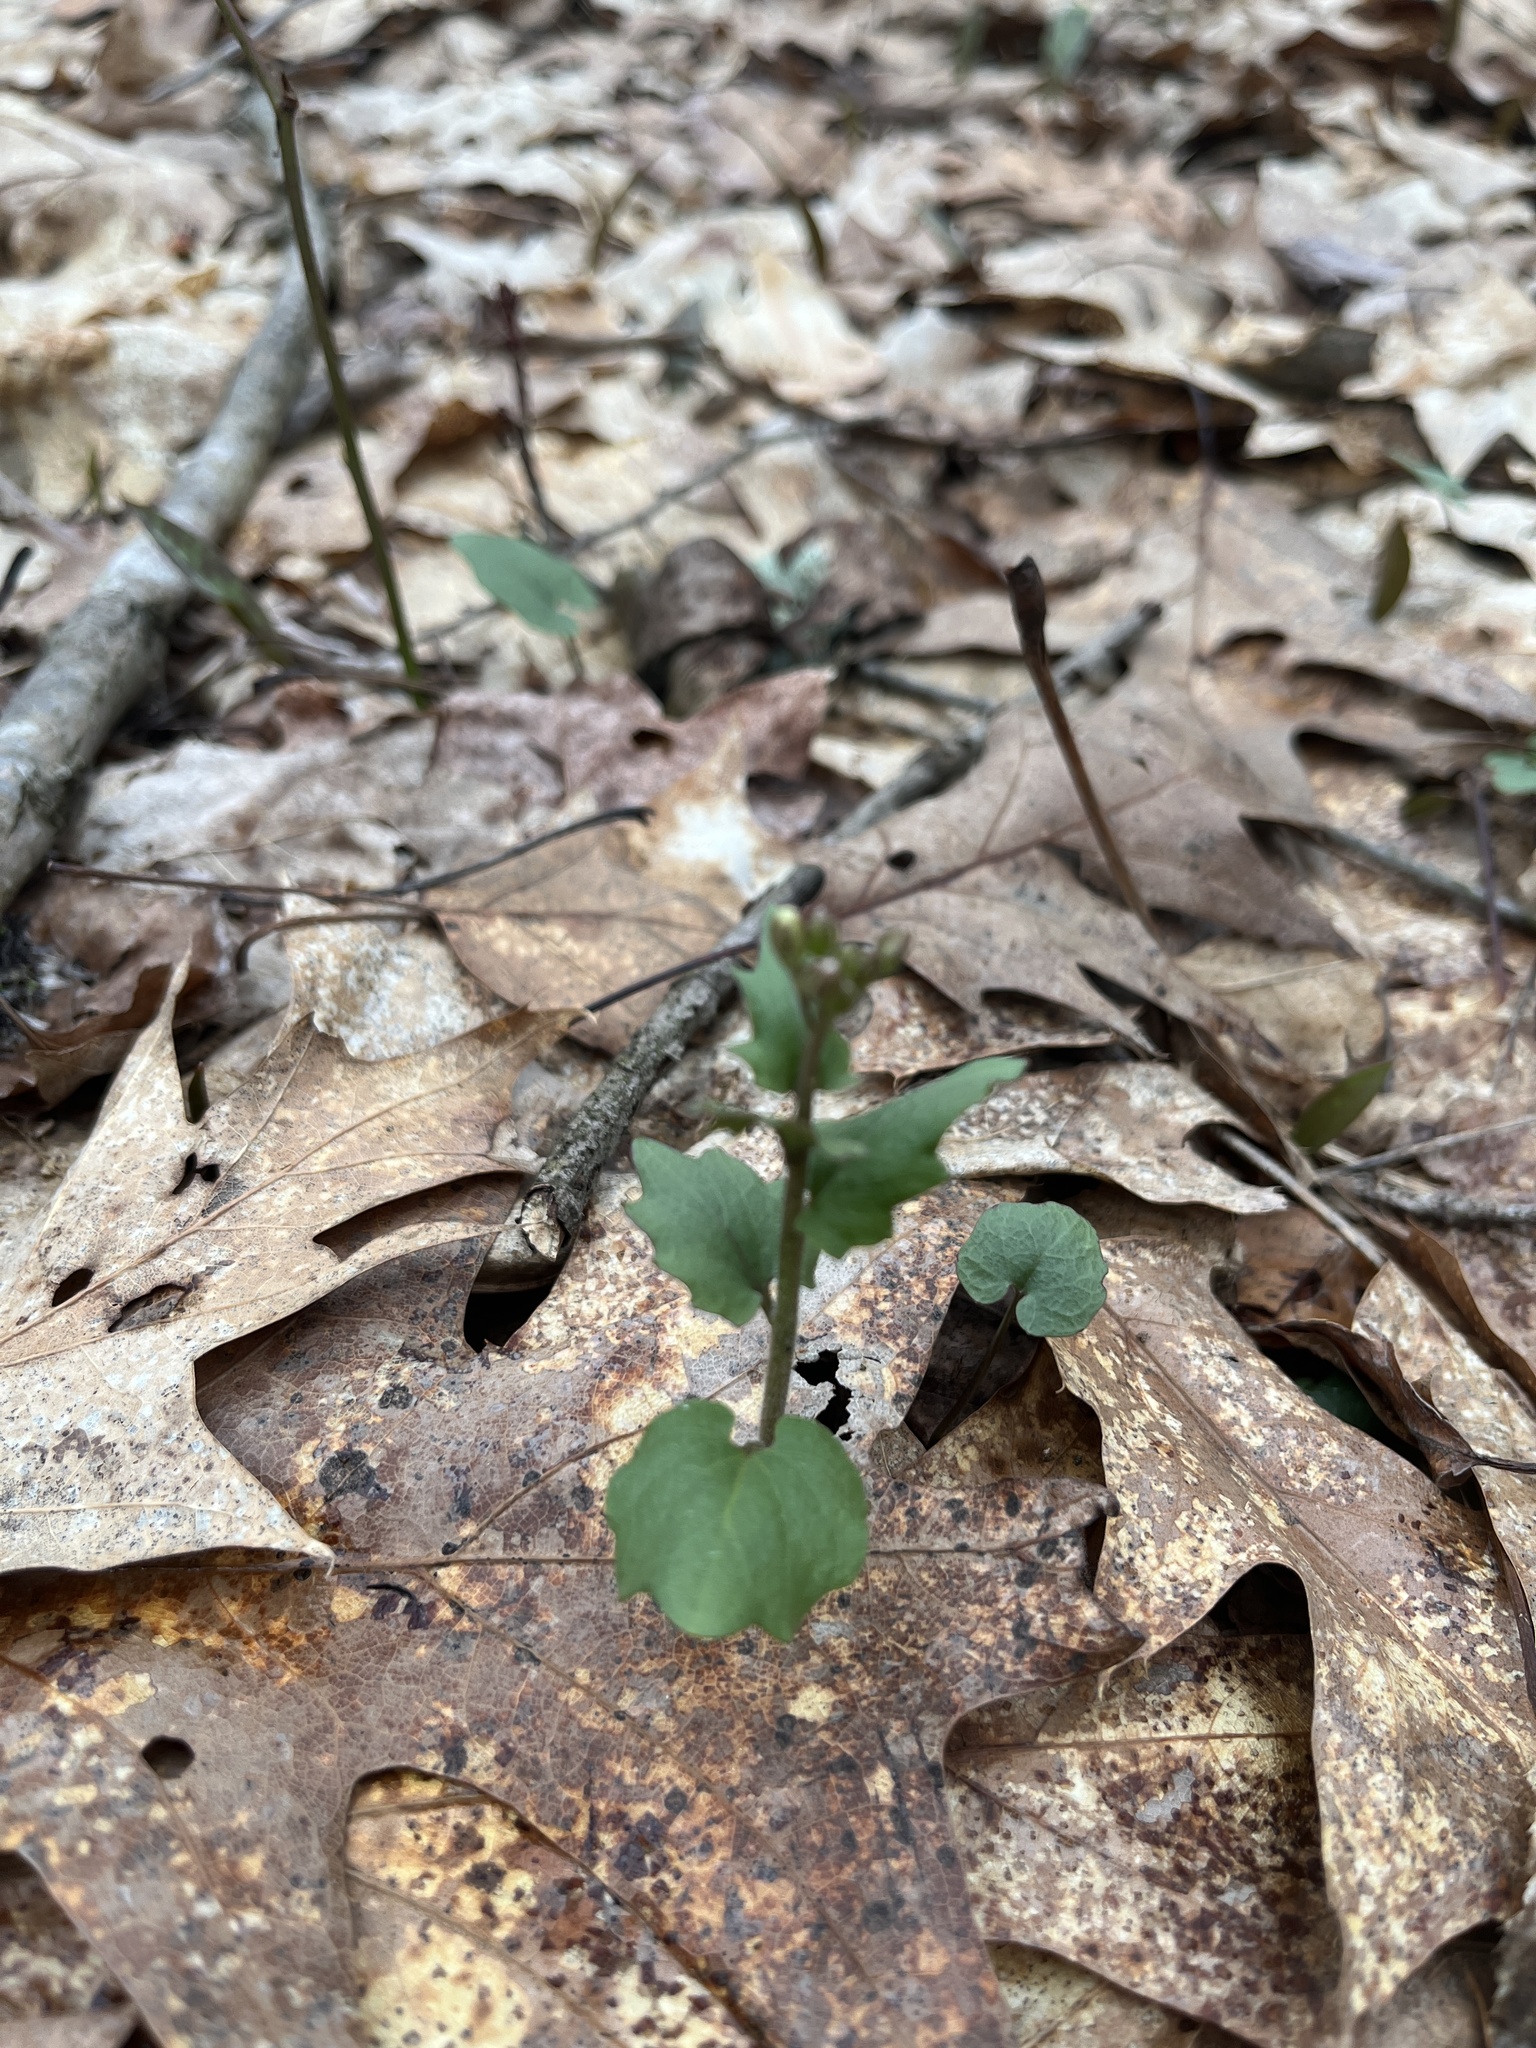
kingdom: Plantae
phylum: Tracheophyta
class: Magnoliopsida
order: Brassicales
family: Brassicaceae
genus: Cardamine
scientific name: Cardamine douglassii
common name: Purple cress
